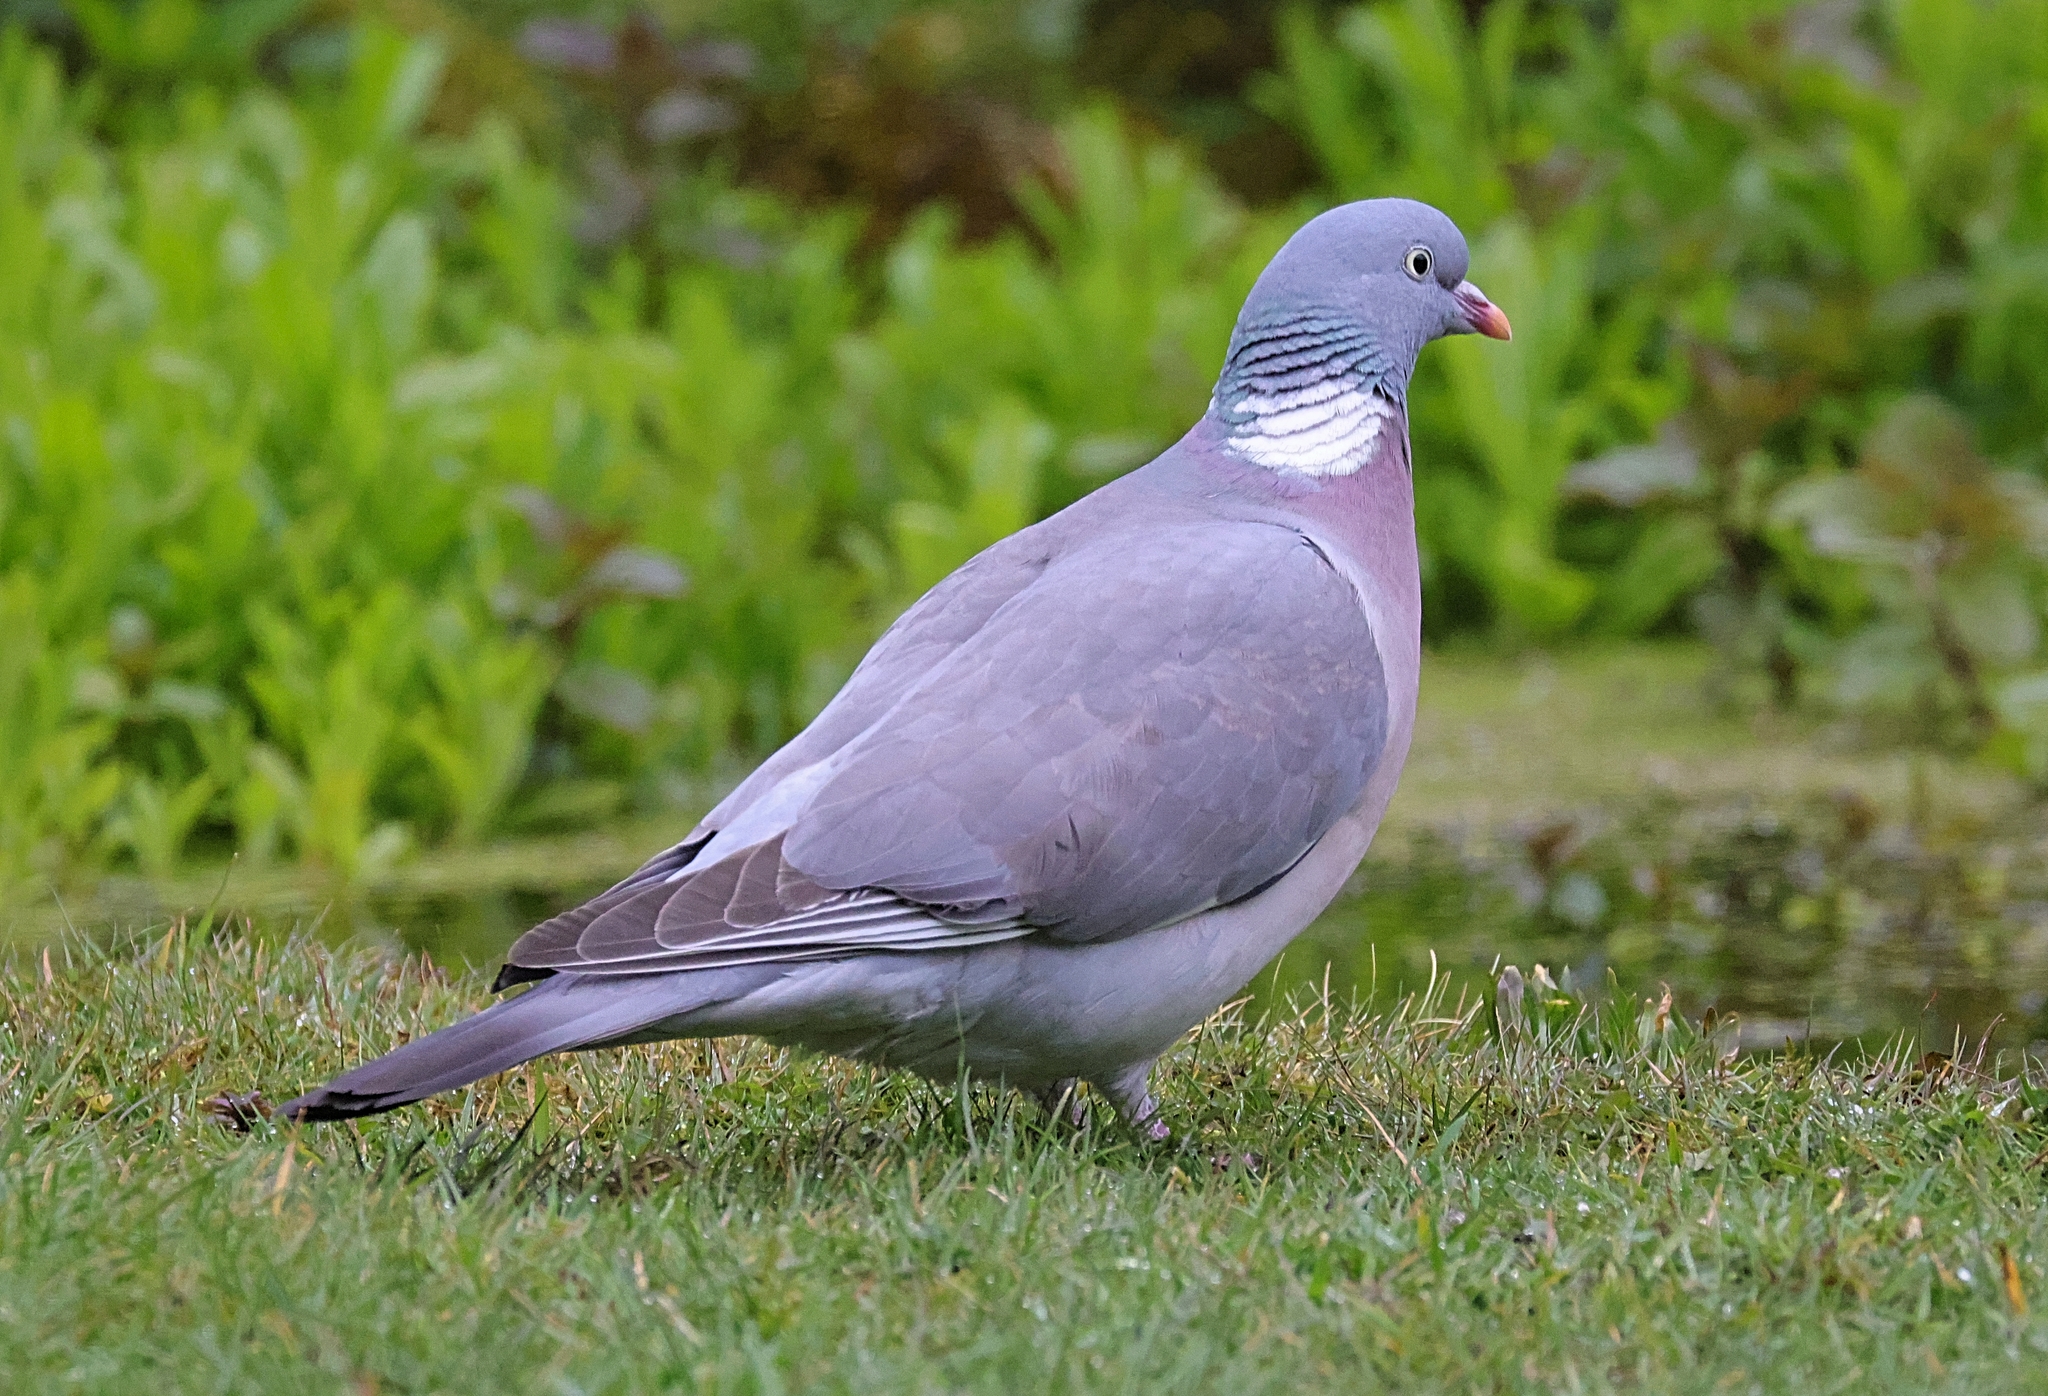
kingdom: Animalia
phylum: Chordata
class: Aves
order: Columbiformes
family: Columbidae
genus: Columba
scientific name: Columba palumbus
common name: Common wood pigeon
